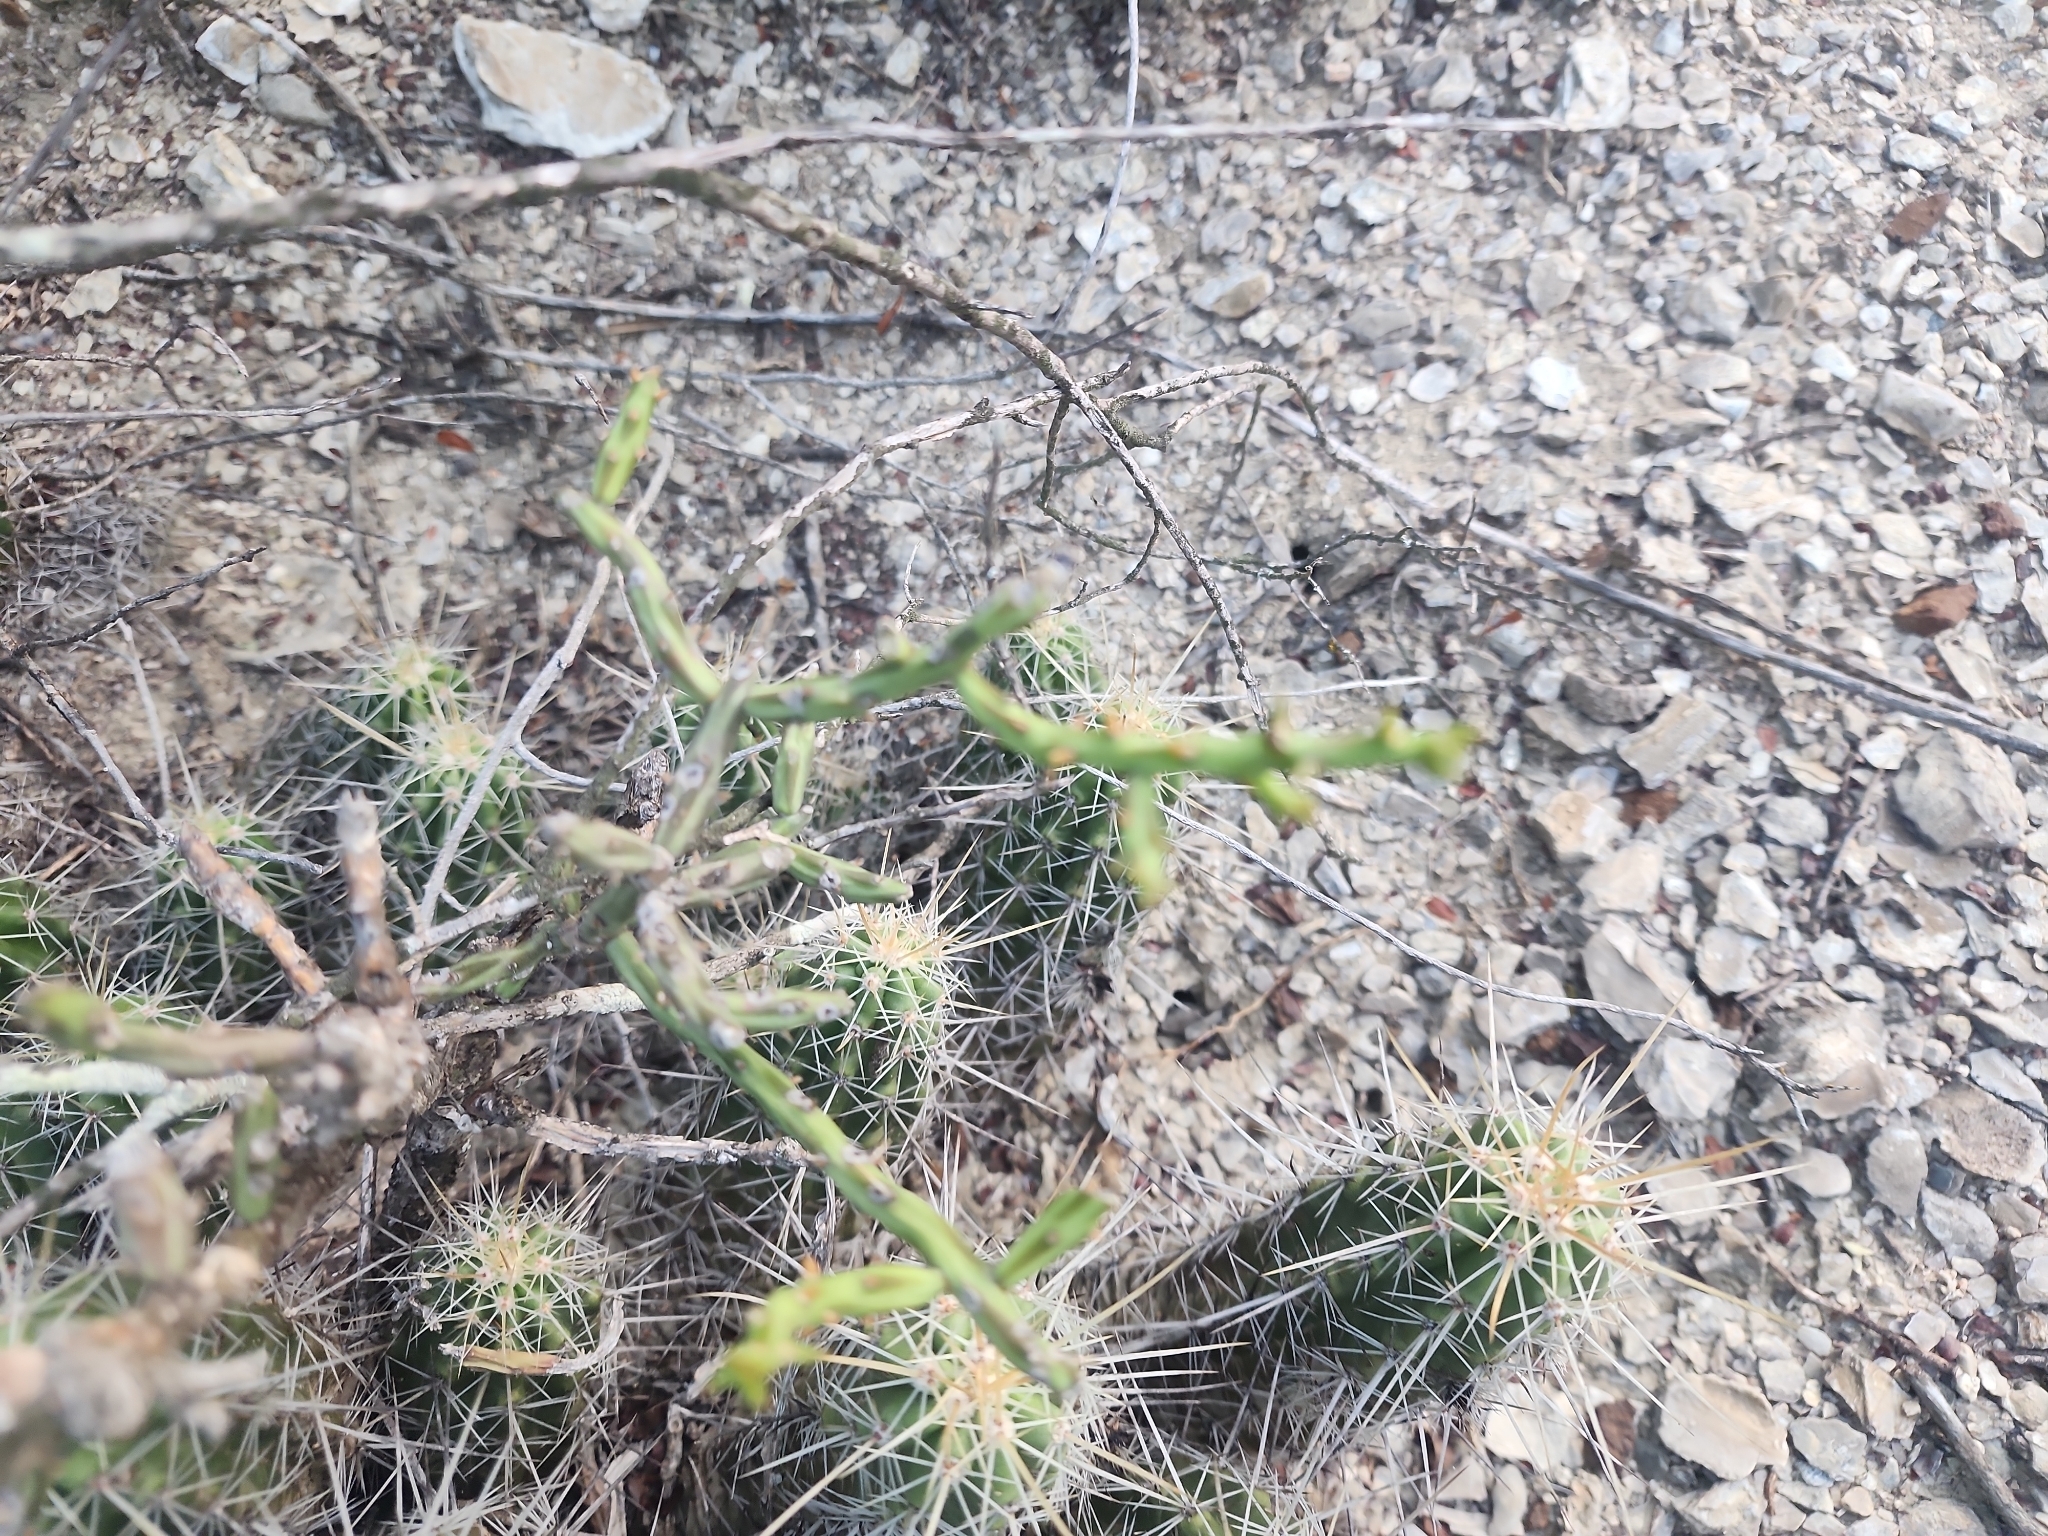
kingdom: Plantae
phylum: Tracheophyta
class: Magnoliopsida
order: Caryophyllales
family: Cactaceae
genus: Cylindropuntia
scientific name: Cylindropuntia leptocaulis
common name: Christmas cactus
